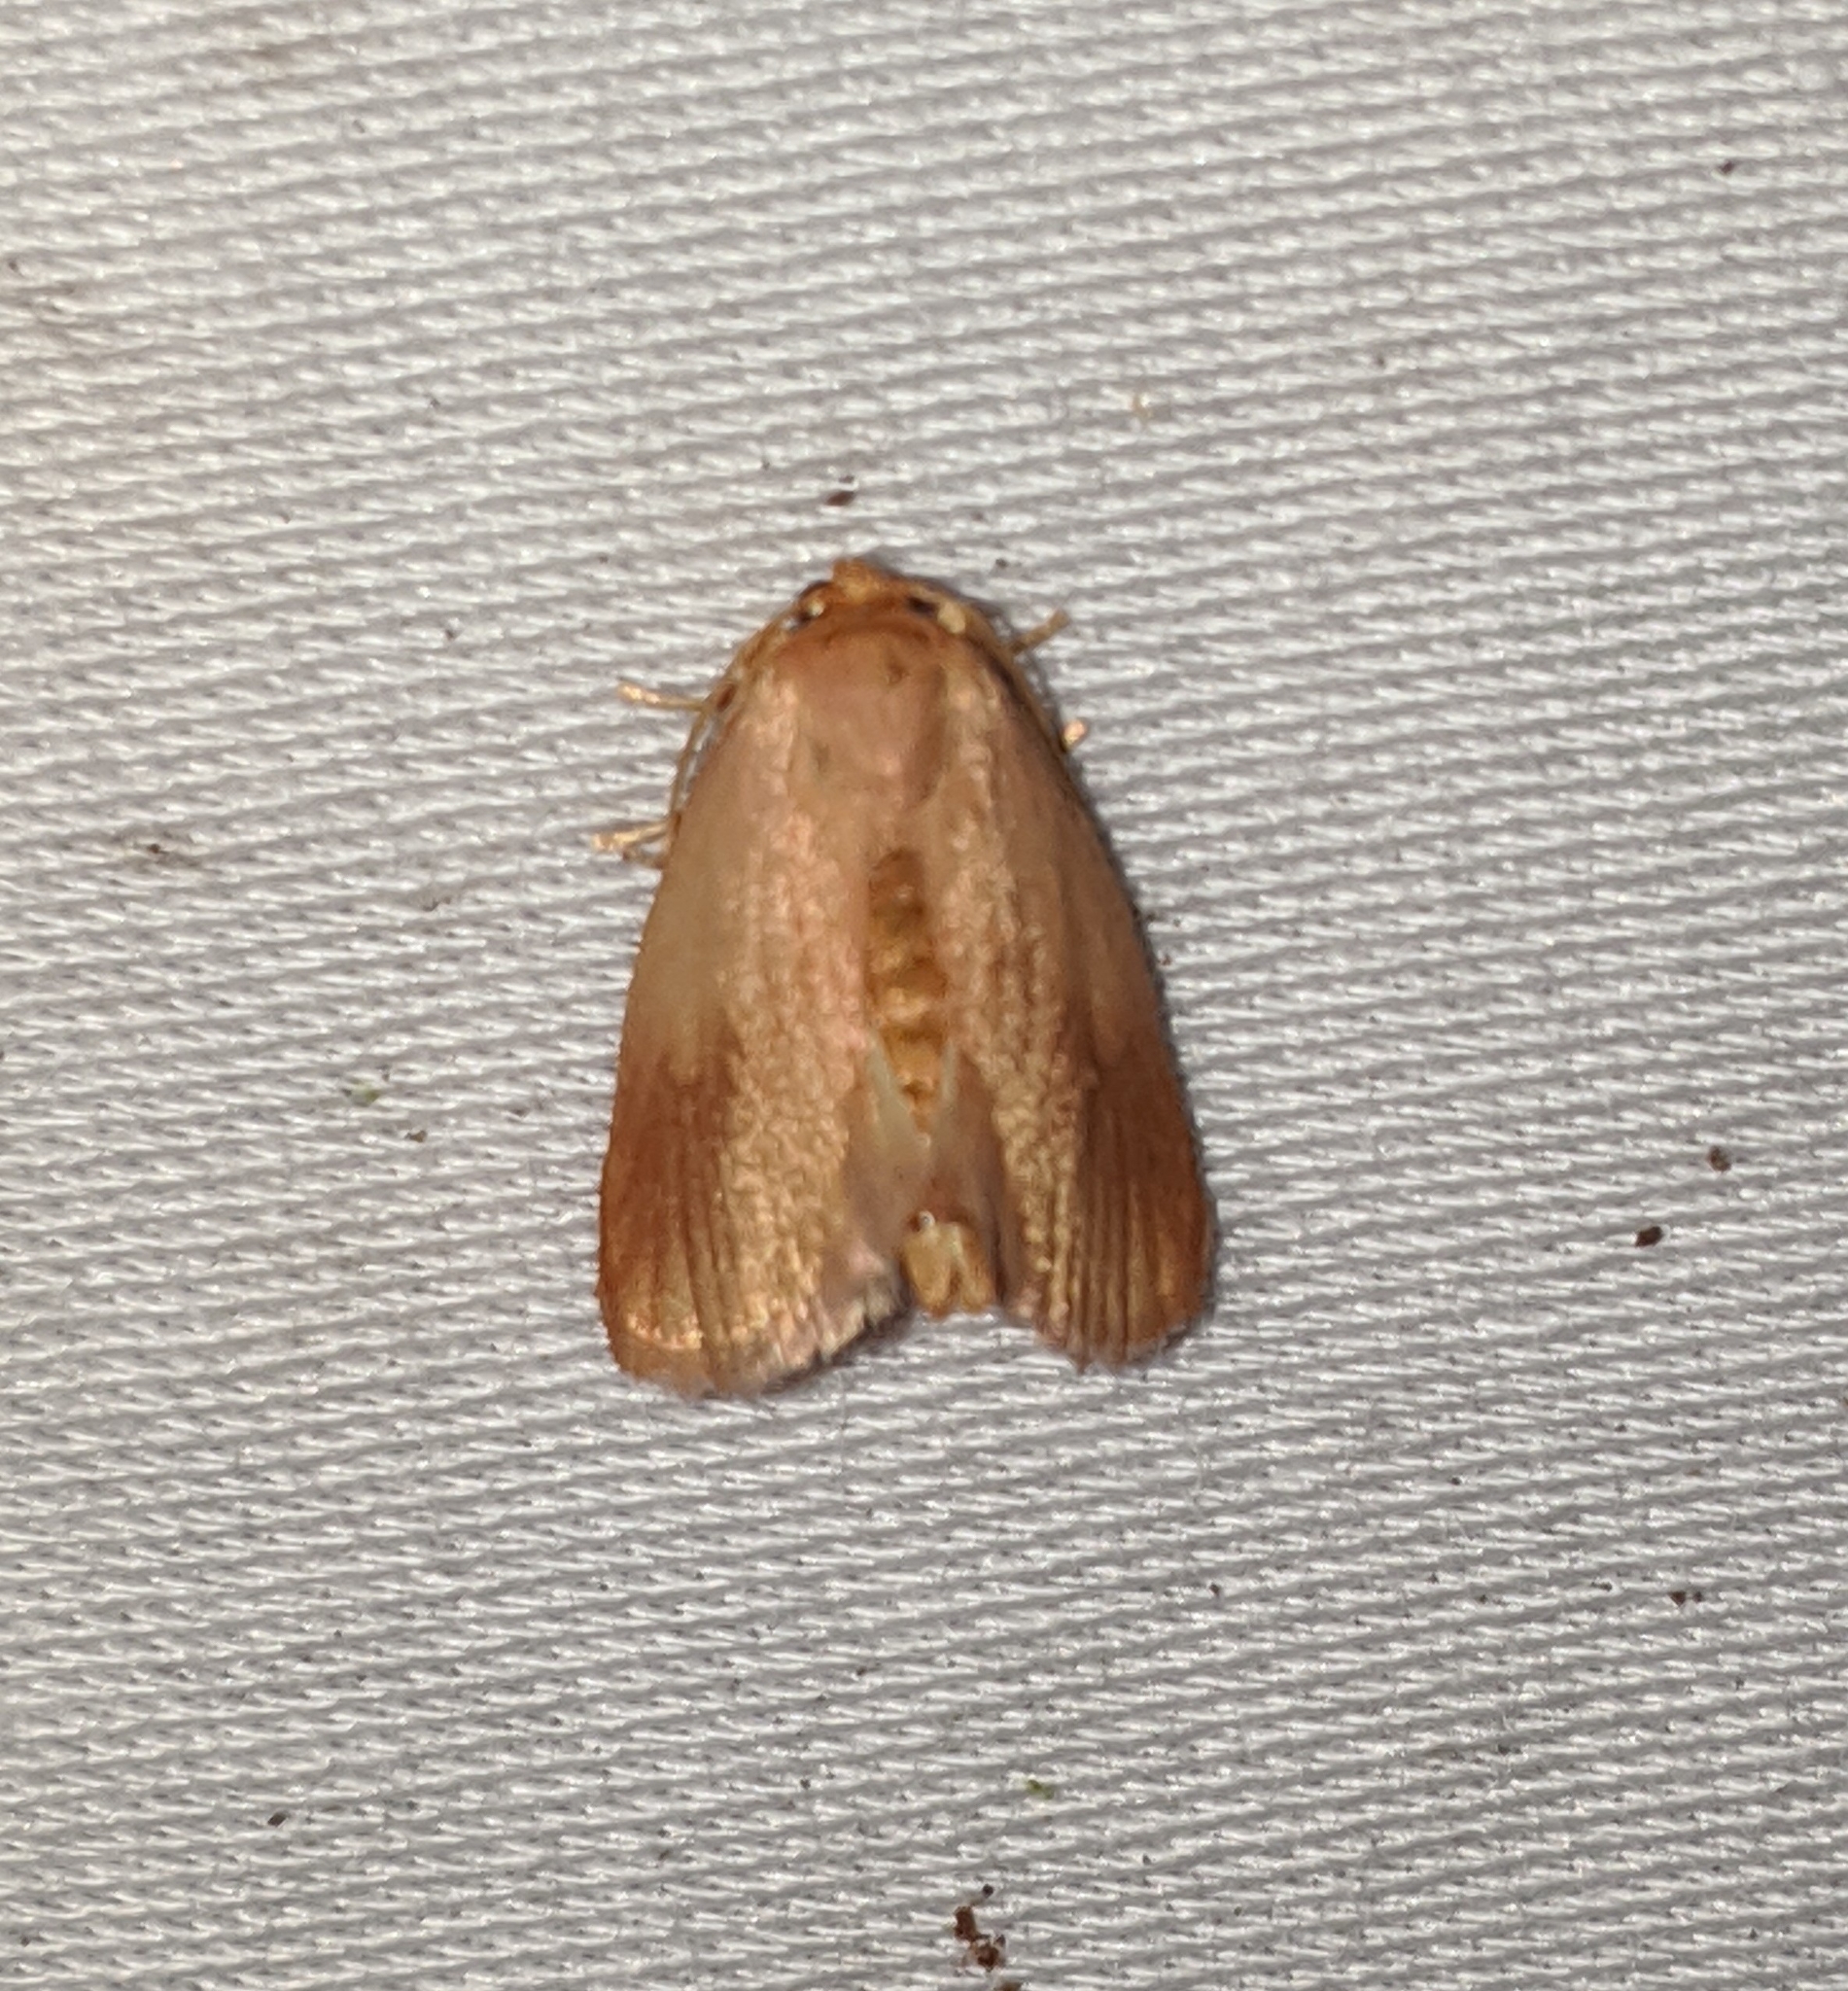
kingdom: Animalia
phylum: Arthropoda
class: Insecta
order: Lepidoptera
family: Limacodidae
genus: Tortricidia
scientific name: Tortricidia testacea
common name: Early button slug moth
